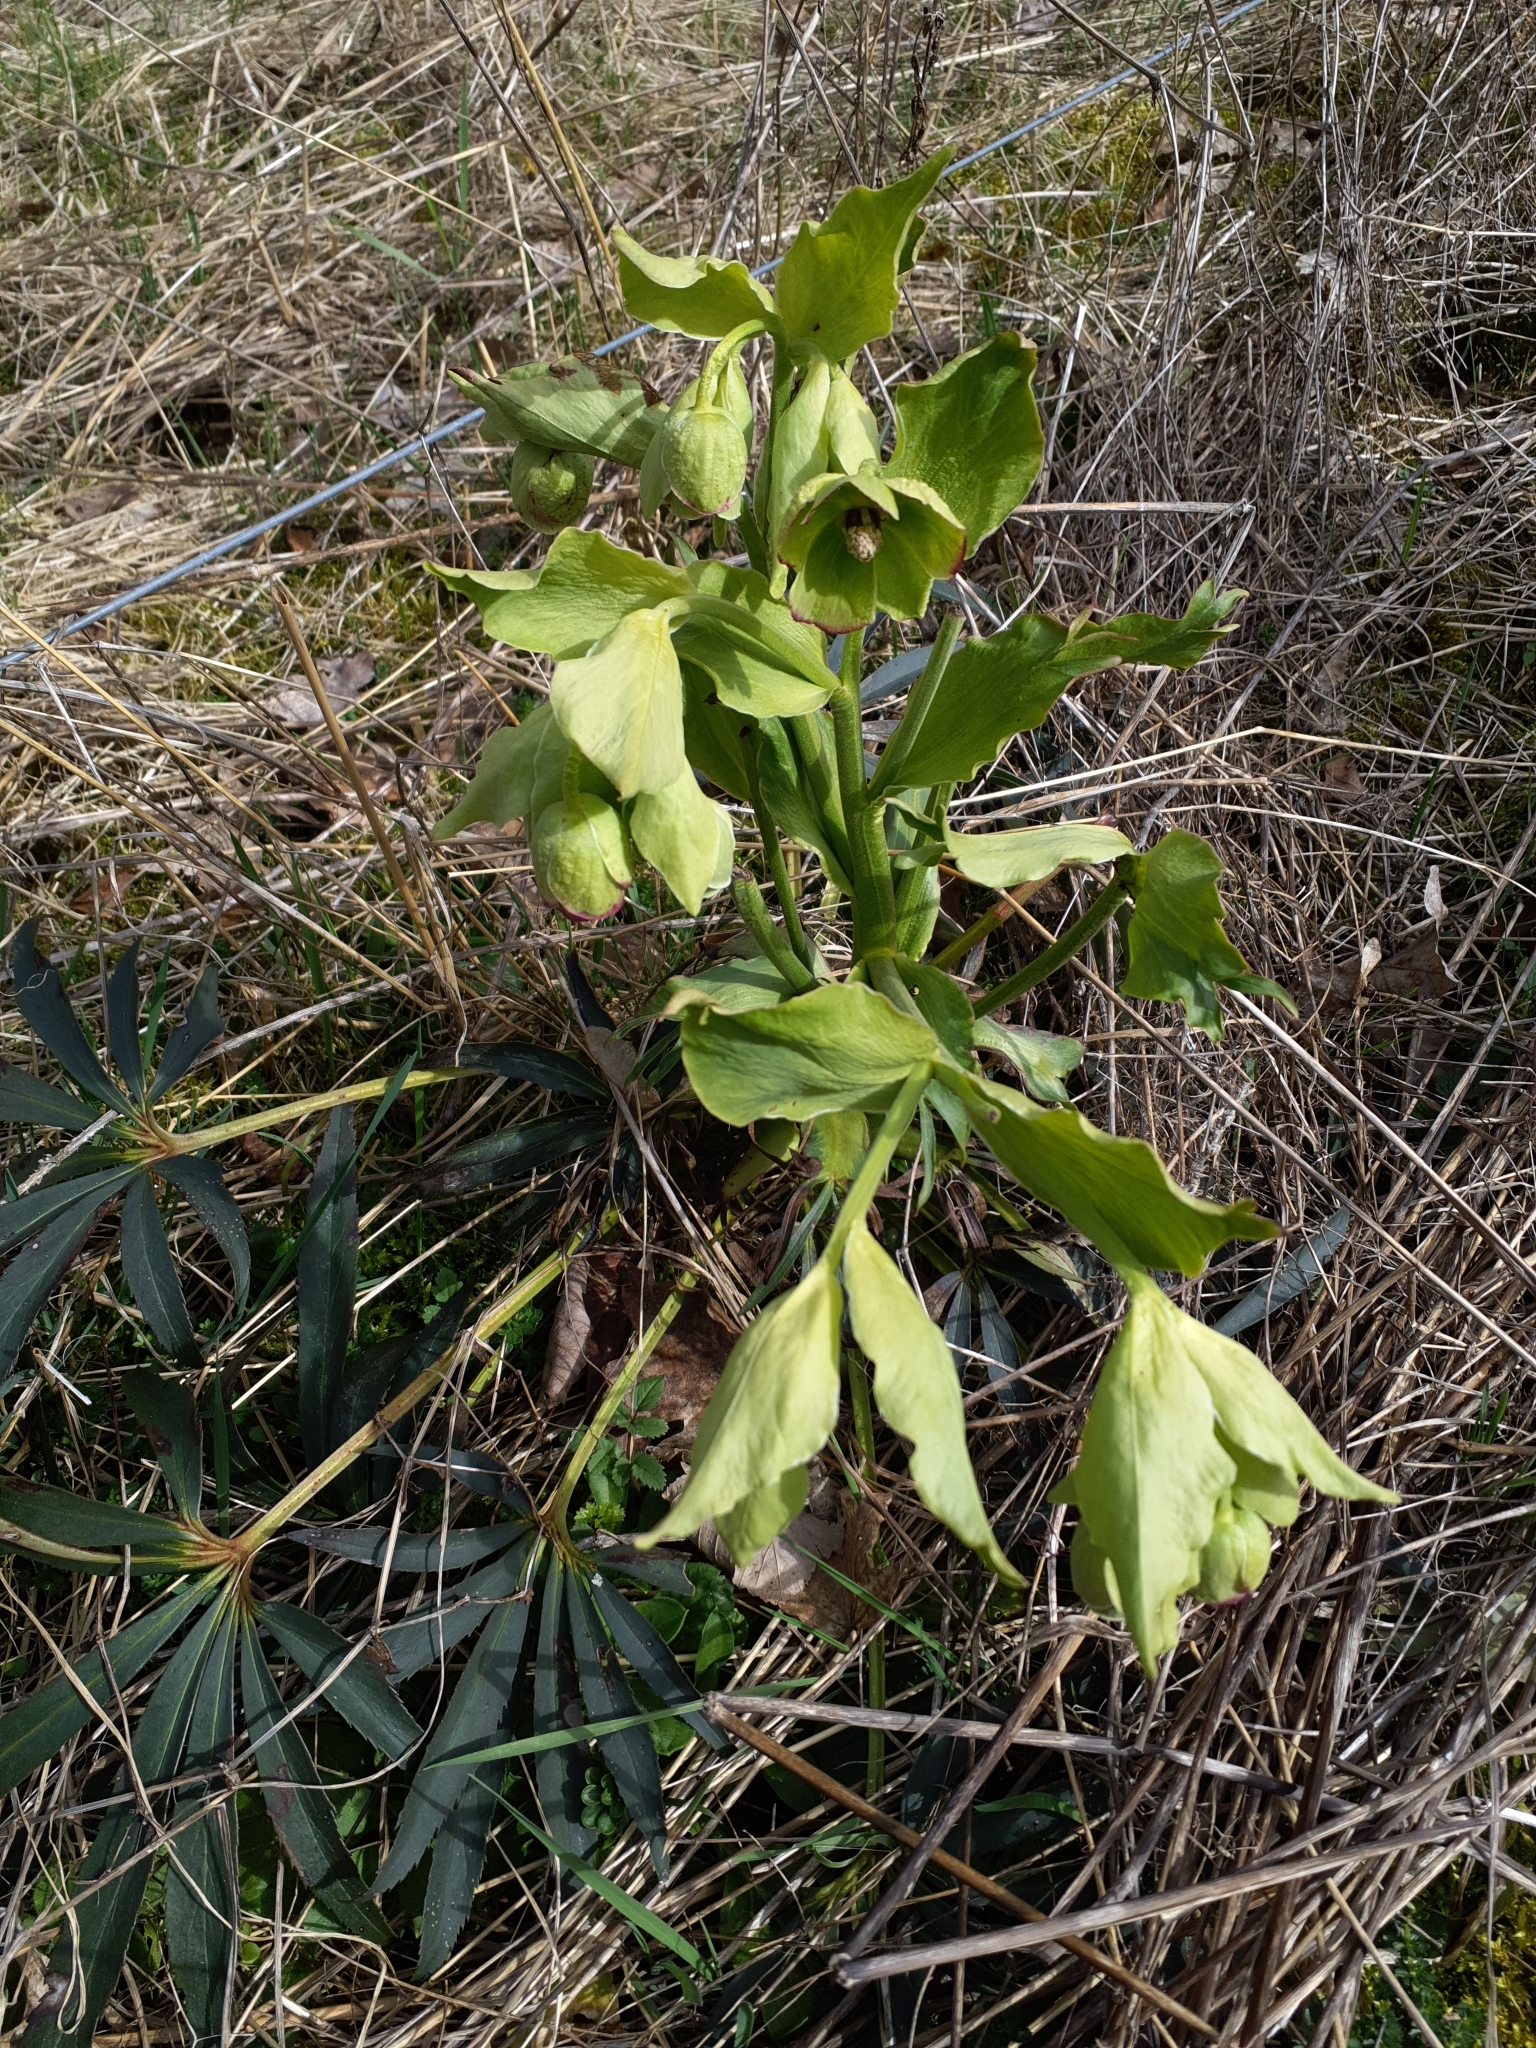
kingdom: Plantae
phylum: Tracheophyta
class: Magnoliopsida
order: Ranunculales
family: Ranunculaceae
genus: Helleborus
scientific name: Helleborus foetidus
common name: Stinking hellebore
